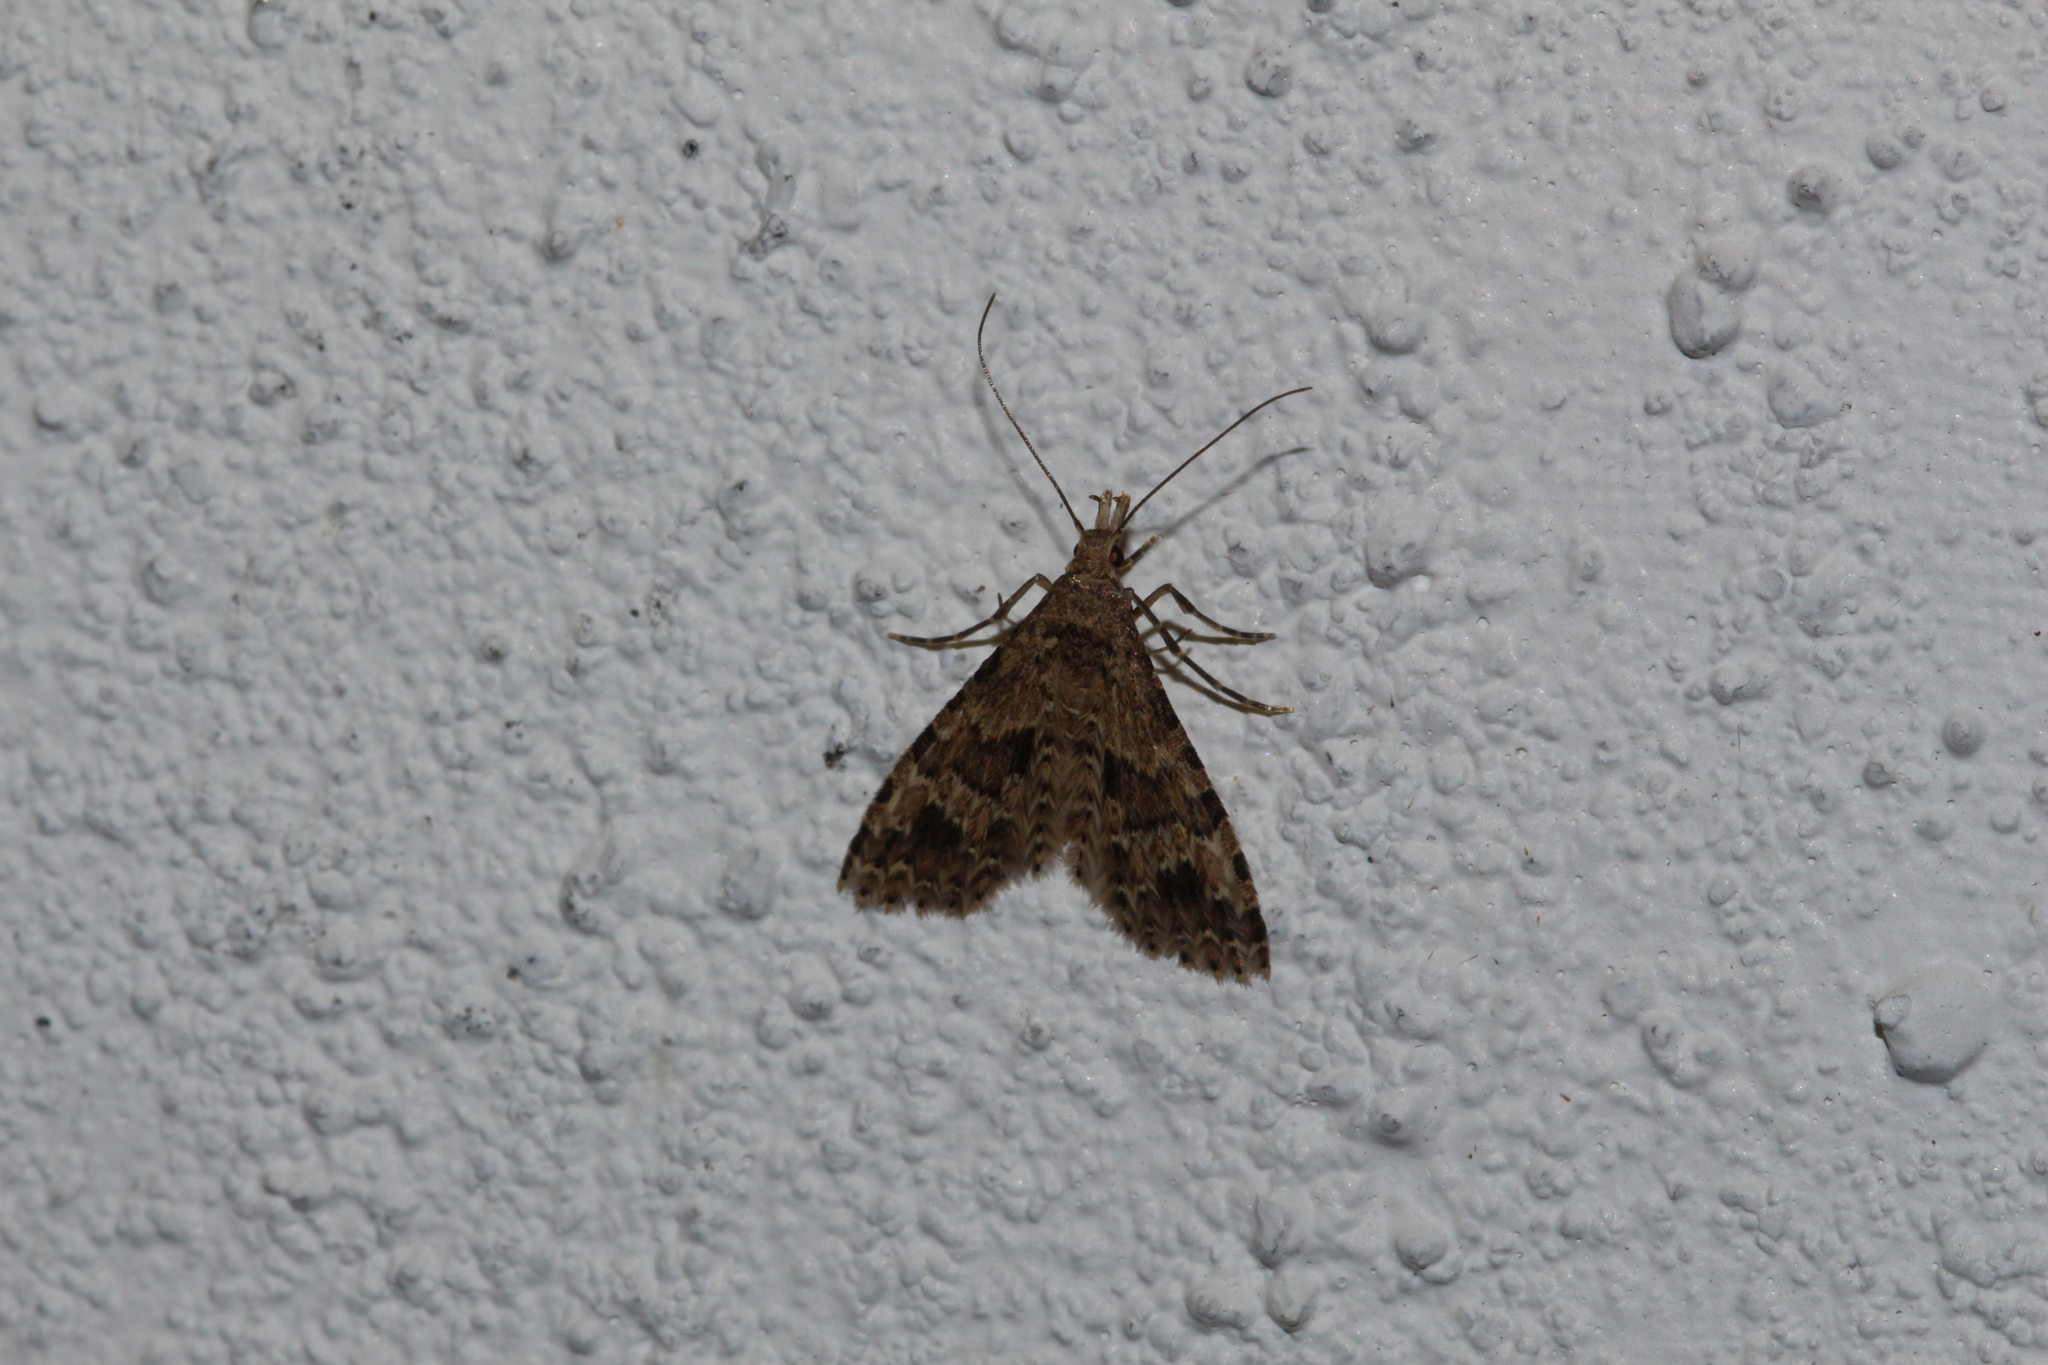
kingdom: Animalia
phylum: Arthropoda
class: Insecta
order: Lepidoptera
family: Alucitidae
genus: Alucita
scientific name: Alucita hexadactyla
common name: Twenty-plume moth
